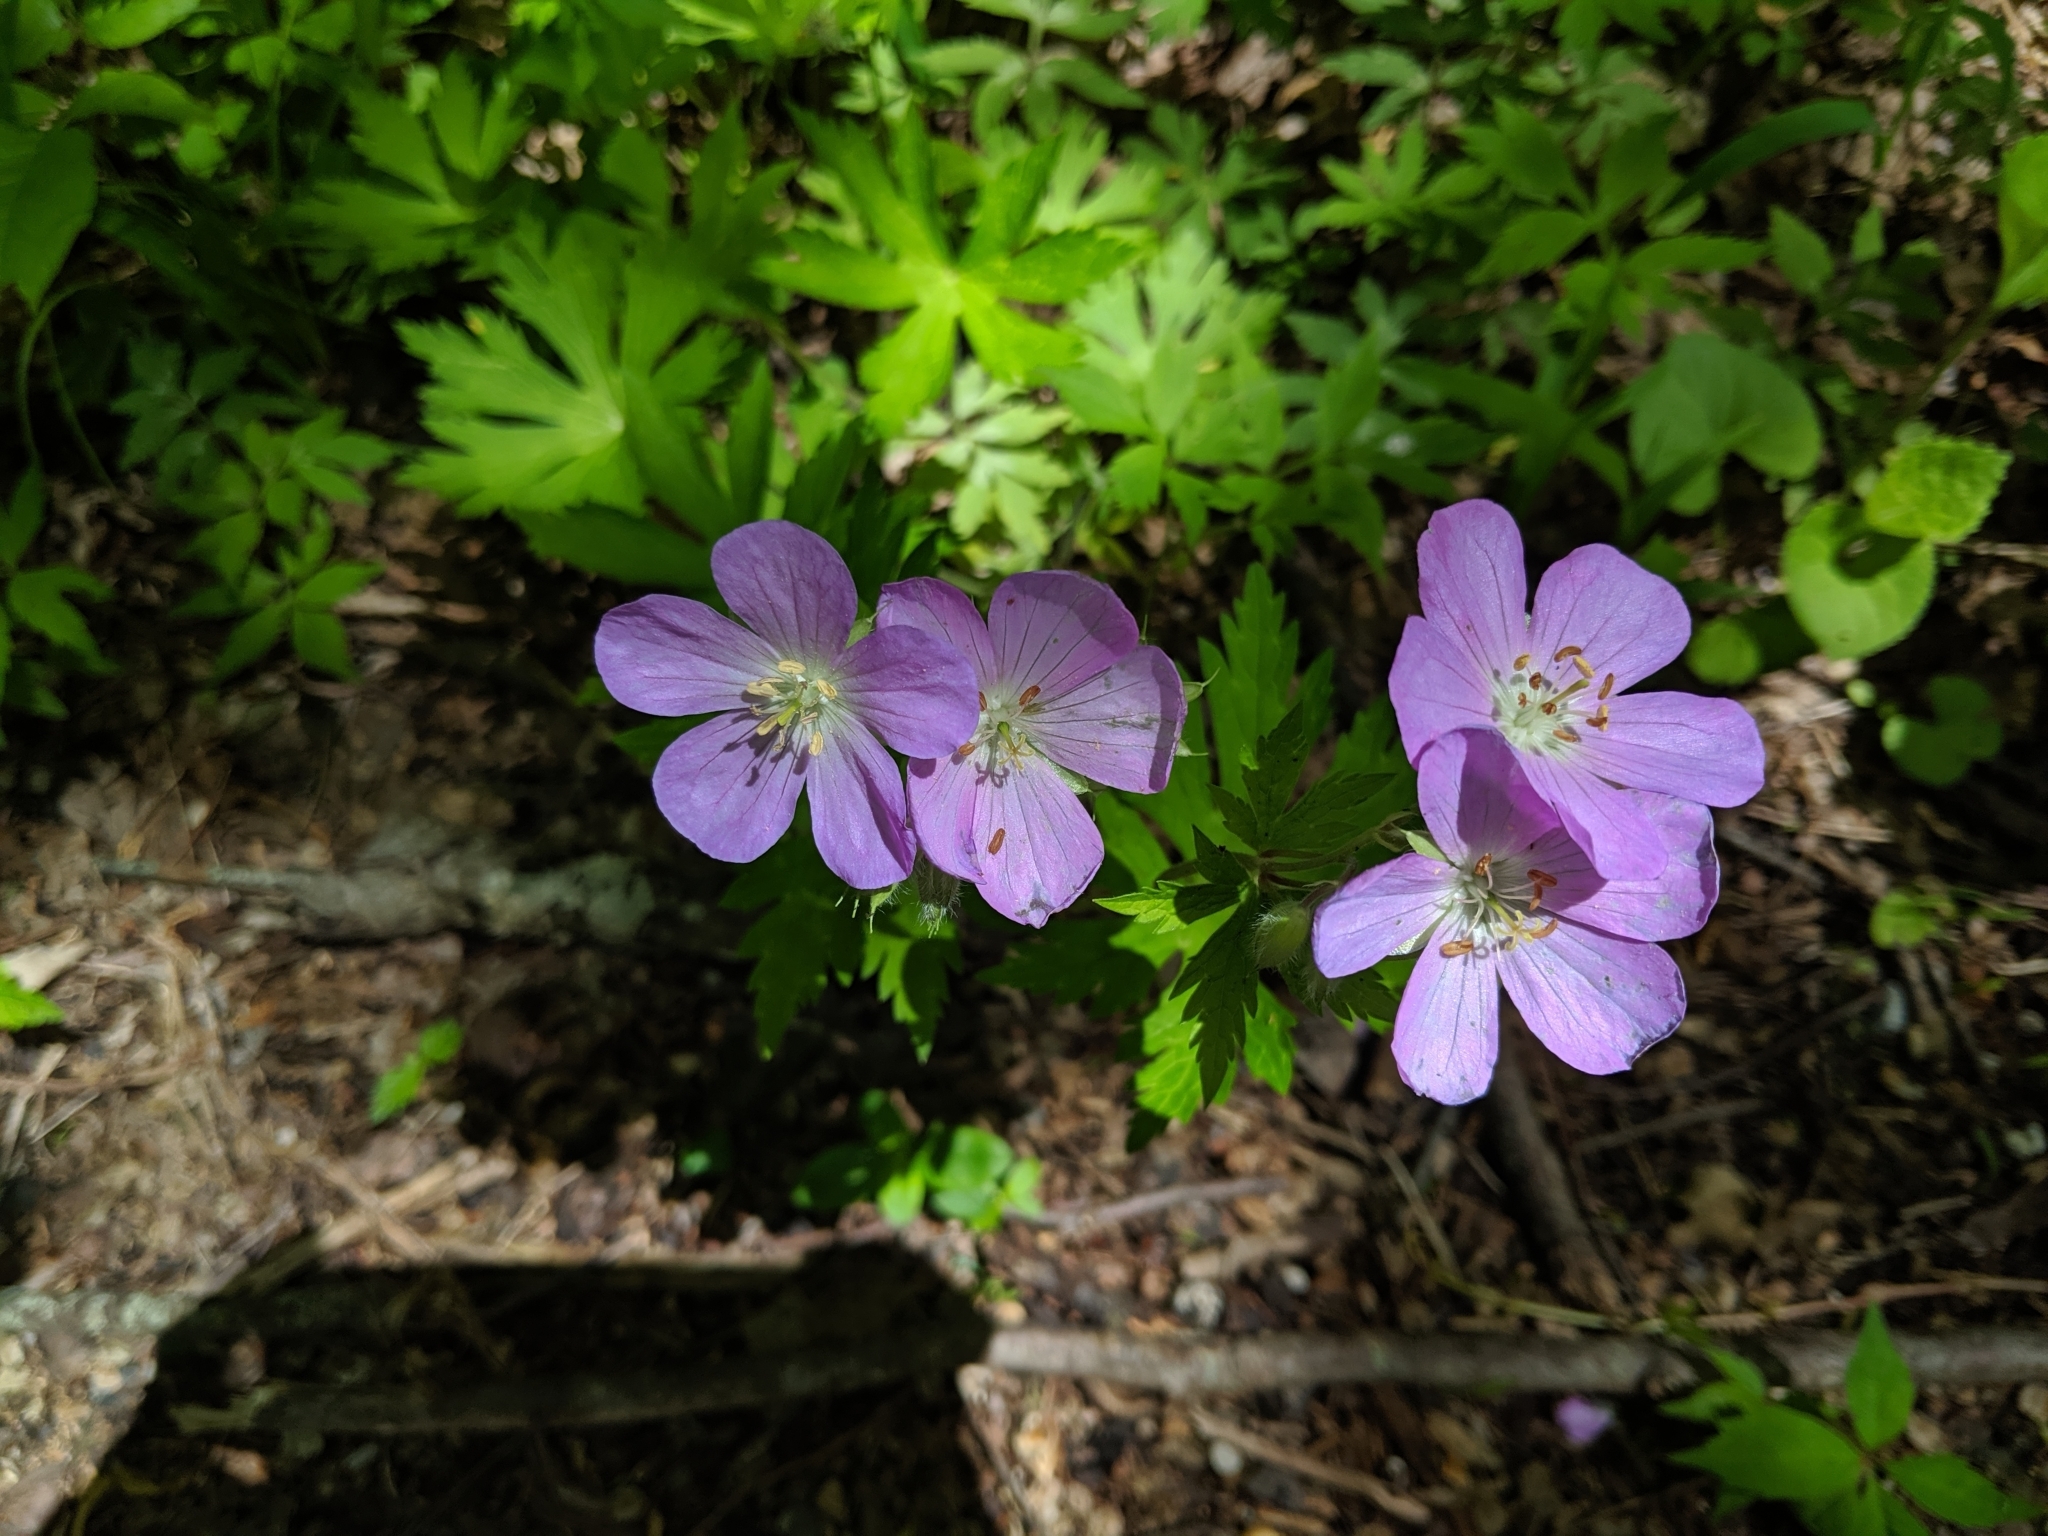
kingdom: Plantae
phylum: Tracheophyta
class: Magnoliopsida
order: Geraniales
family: Geraniaceae
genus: Geranium
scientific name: Geranium maculatum
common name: Spotted geranium
